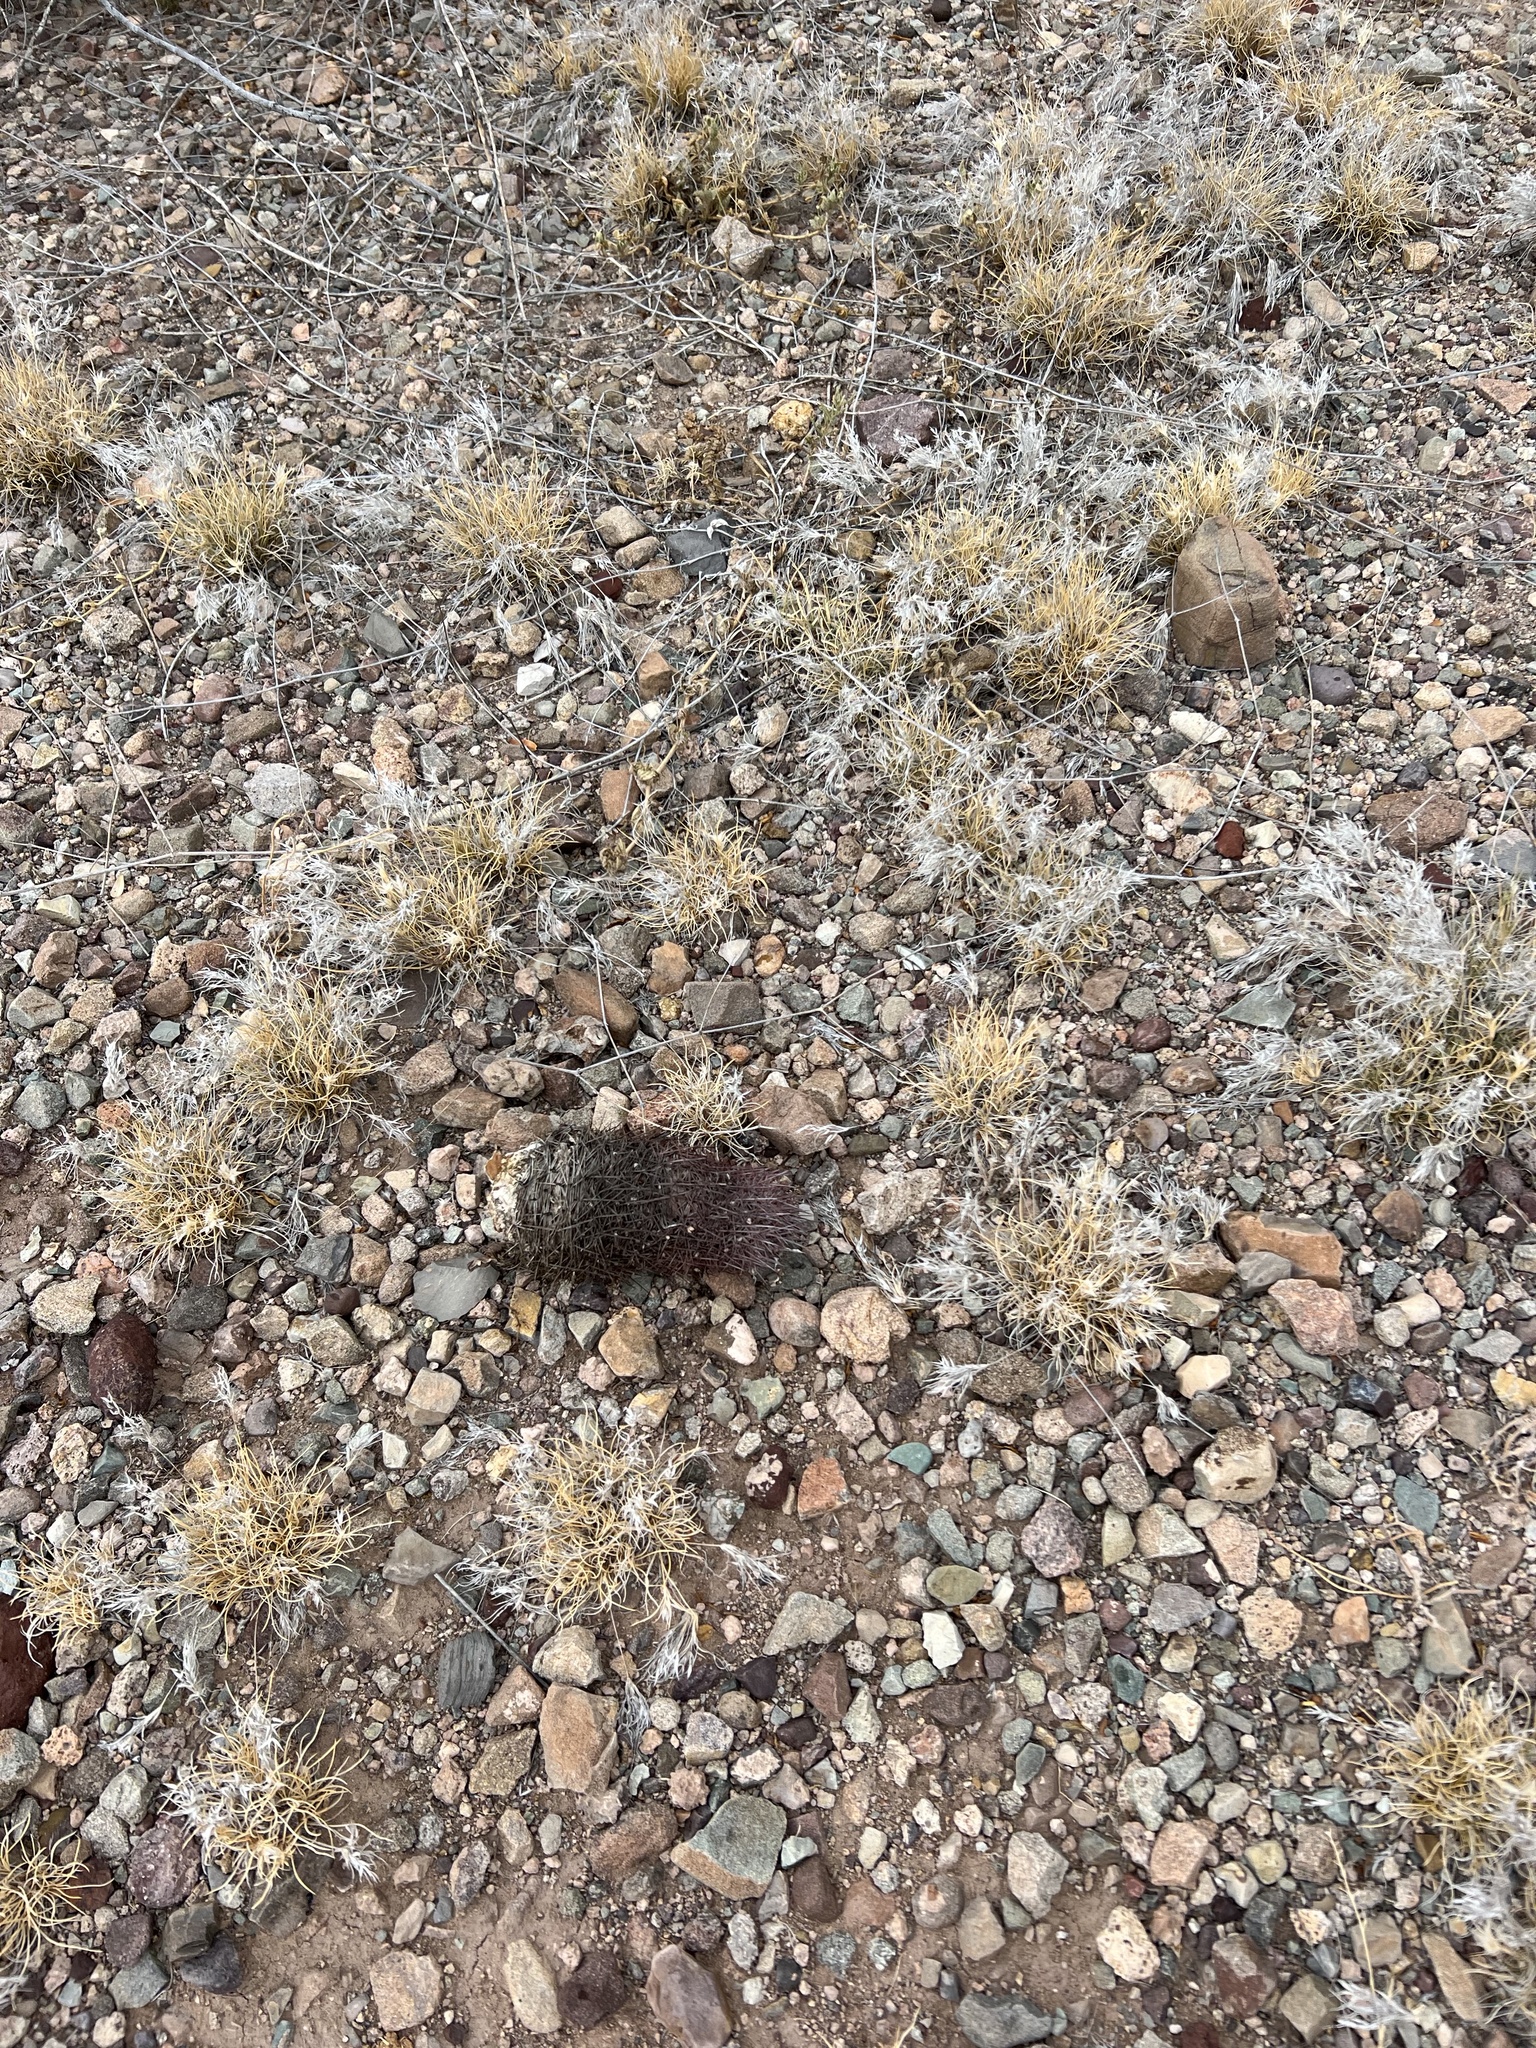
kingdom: Plantae
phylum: Tracheophyta
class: Magnoliopsida
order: Caryophyllales
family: Cactaceae
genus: Sclerocactus
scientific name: Sclerocactus johnsonii
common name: Eight-spine fishhook cactus
